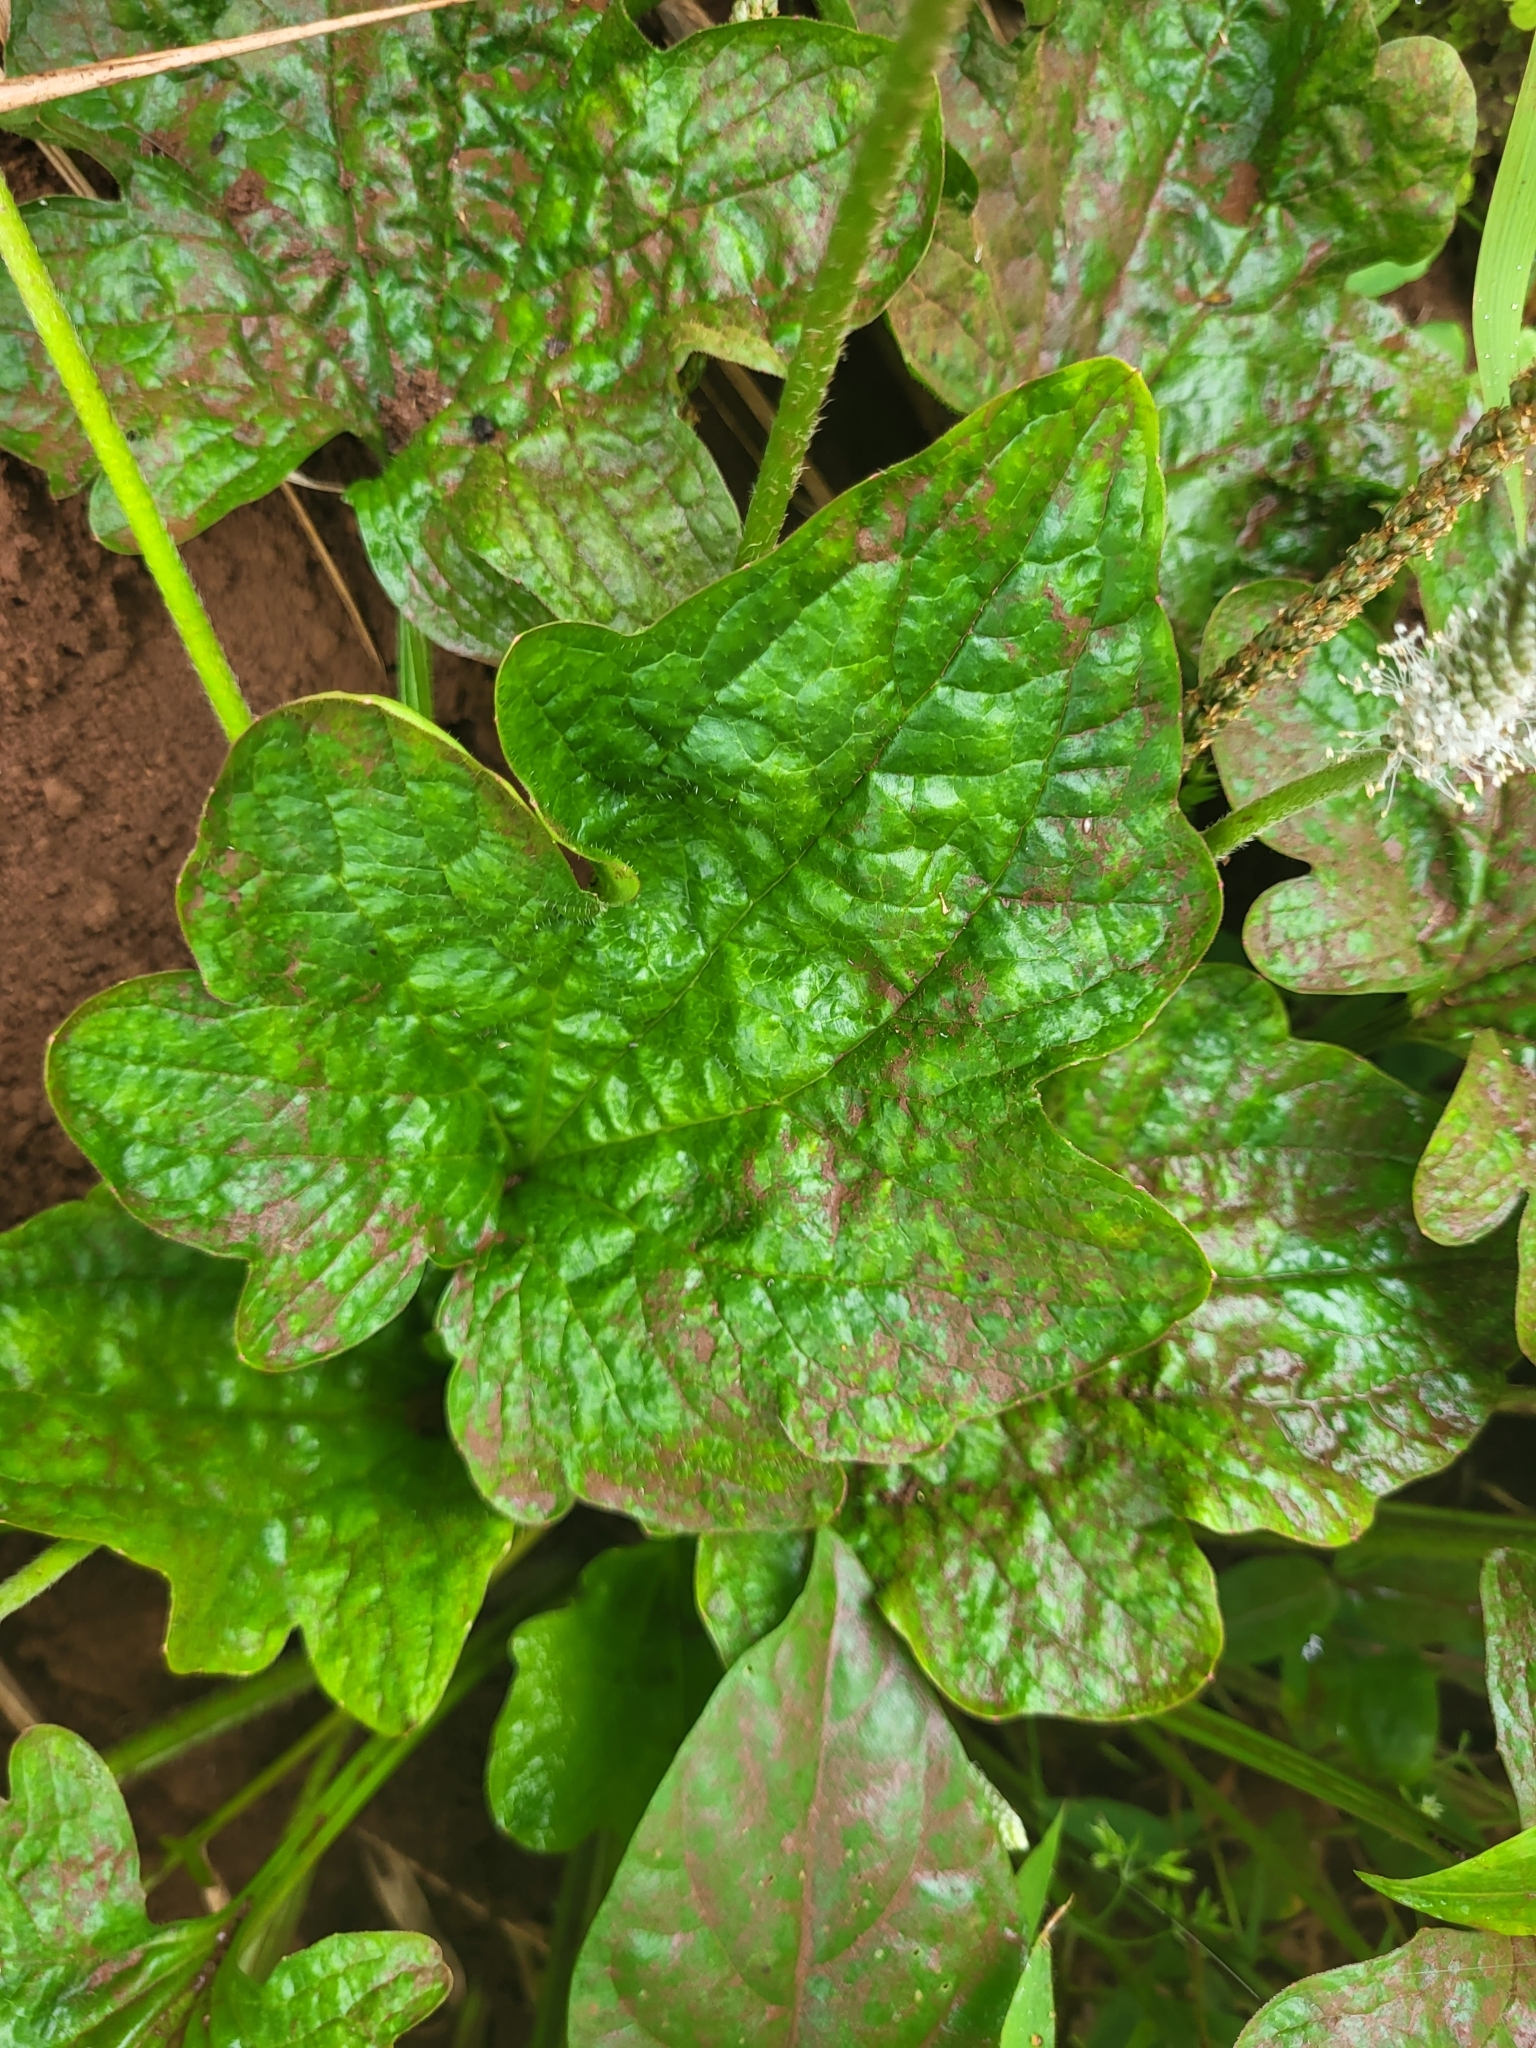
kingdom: Plantae
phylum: Tracheophyta
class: Magnoliopsida
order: Lamiales
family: Plantaginaceae
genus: Plantago
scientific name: Plantago palmata
